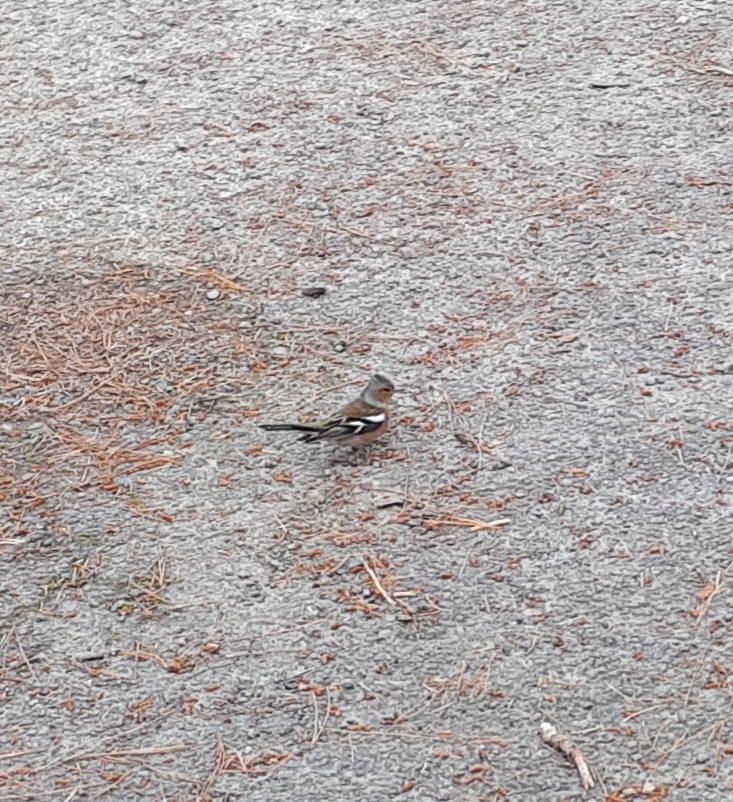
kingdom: Animalia
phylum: Chordata
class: Aves
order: Passeriformes
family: Fringillidae
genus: Fringilla
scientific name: Fringilla coelebs
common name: Common chaffinch
